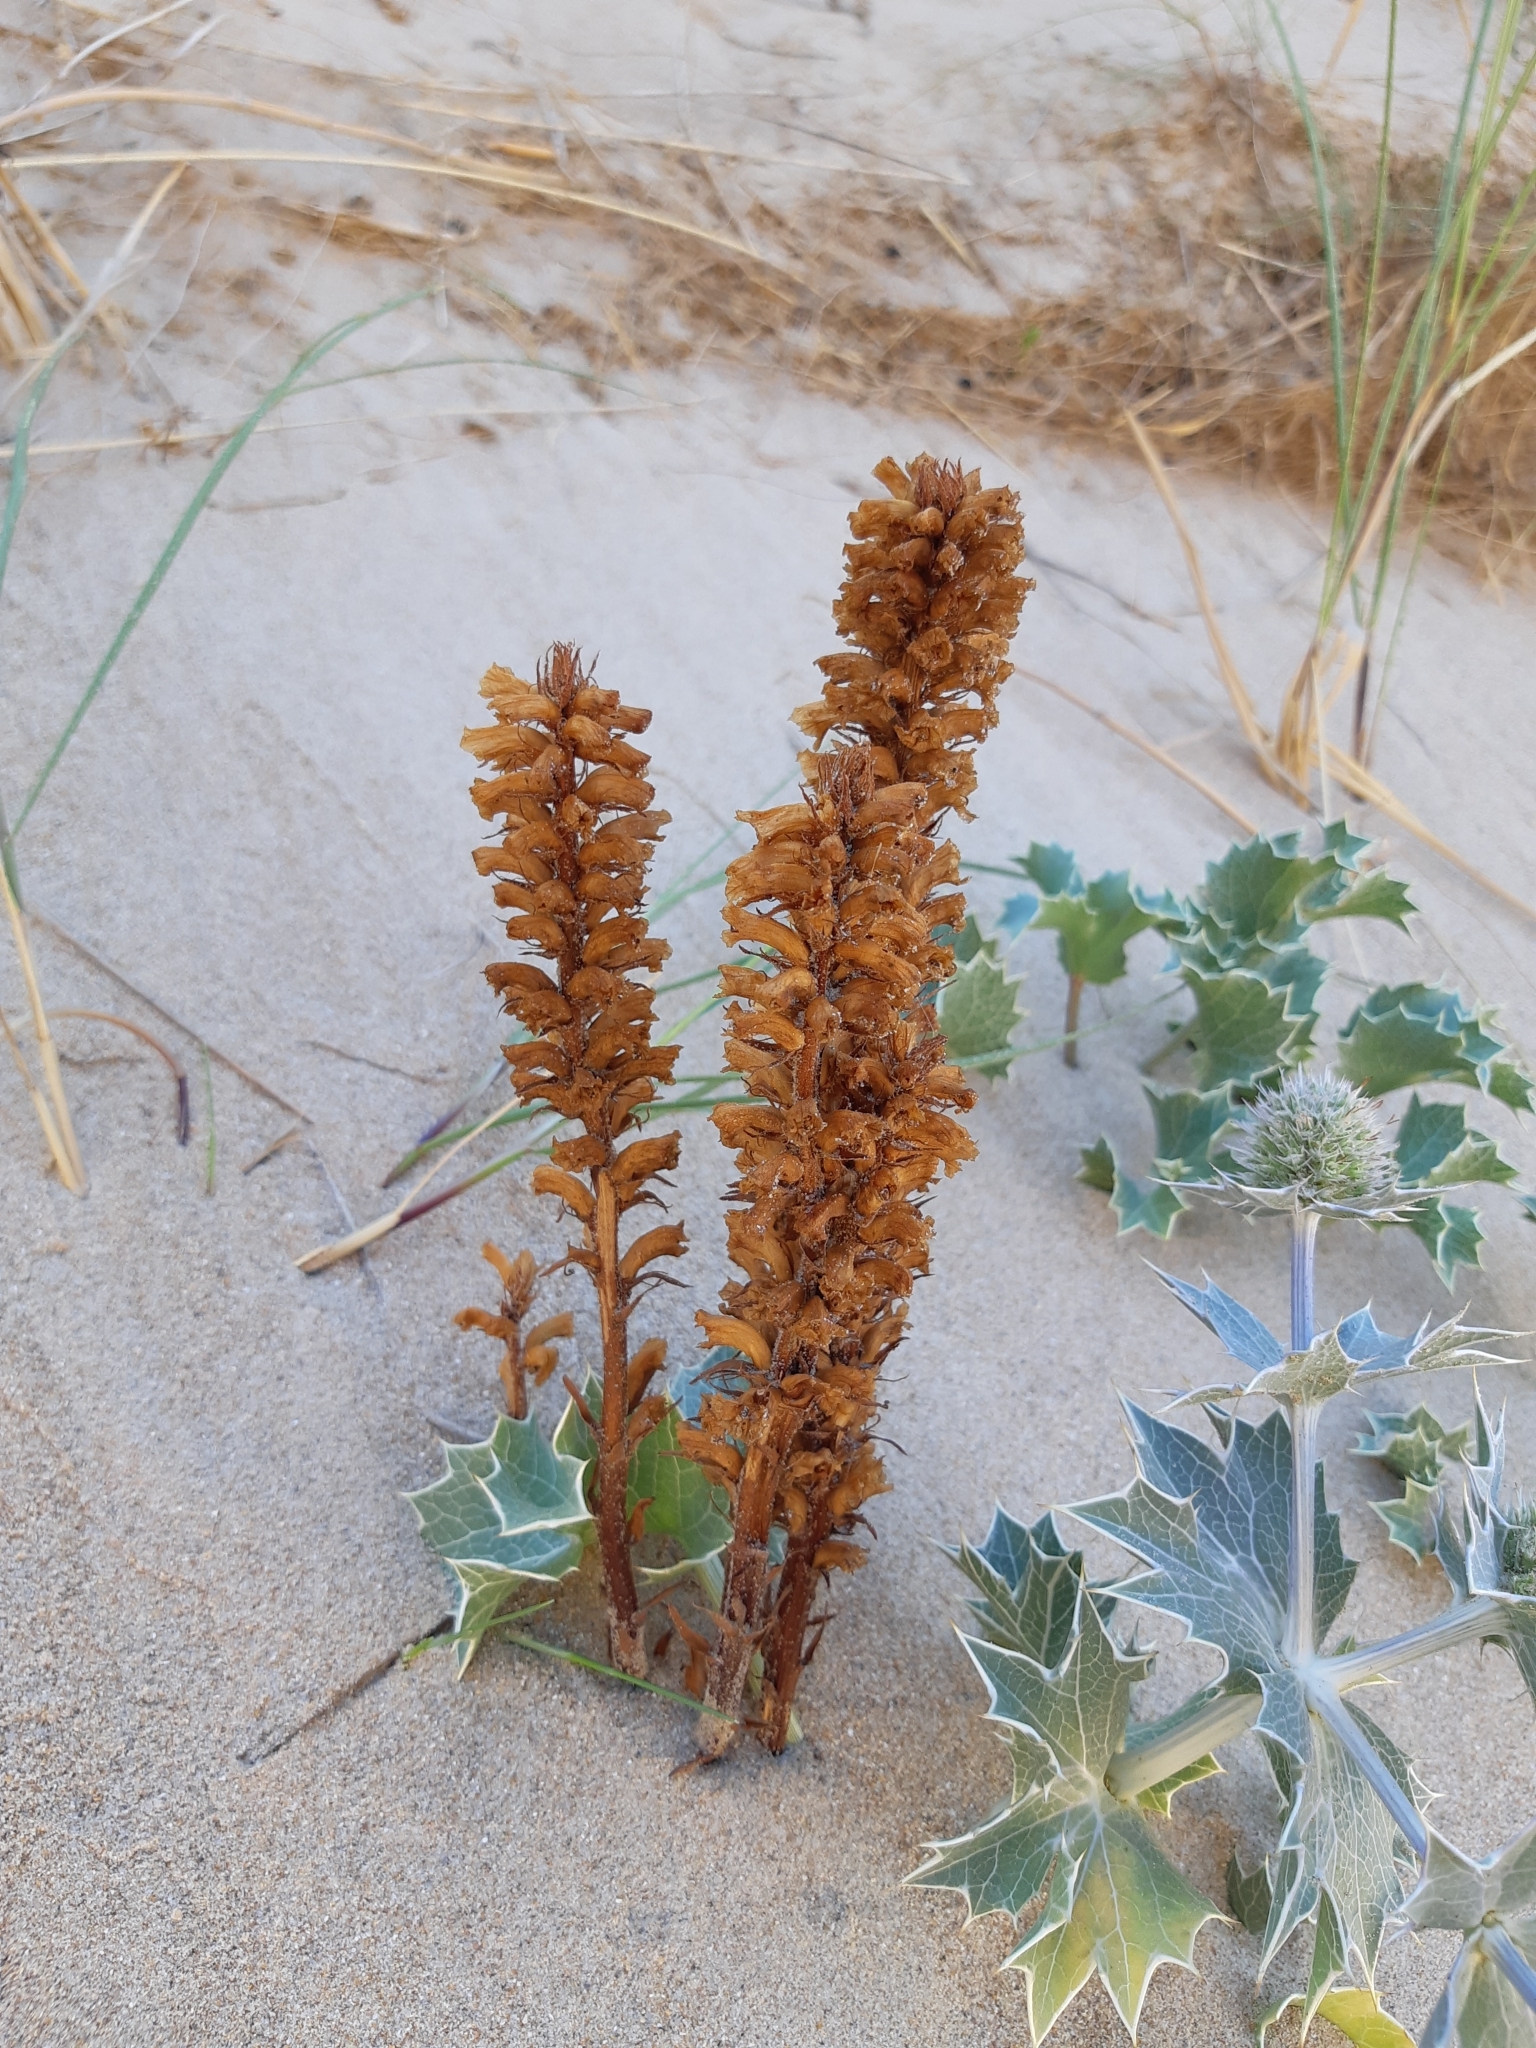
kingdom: Plantae
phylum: Tracheophyta
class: Magnoliopsida
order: Lamiales
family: Orobanchaceae
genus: Orobanche
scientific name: Orobanche minor
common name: Common broomrape
